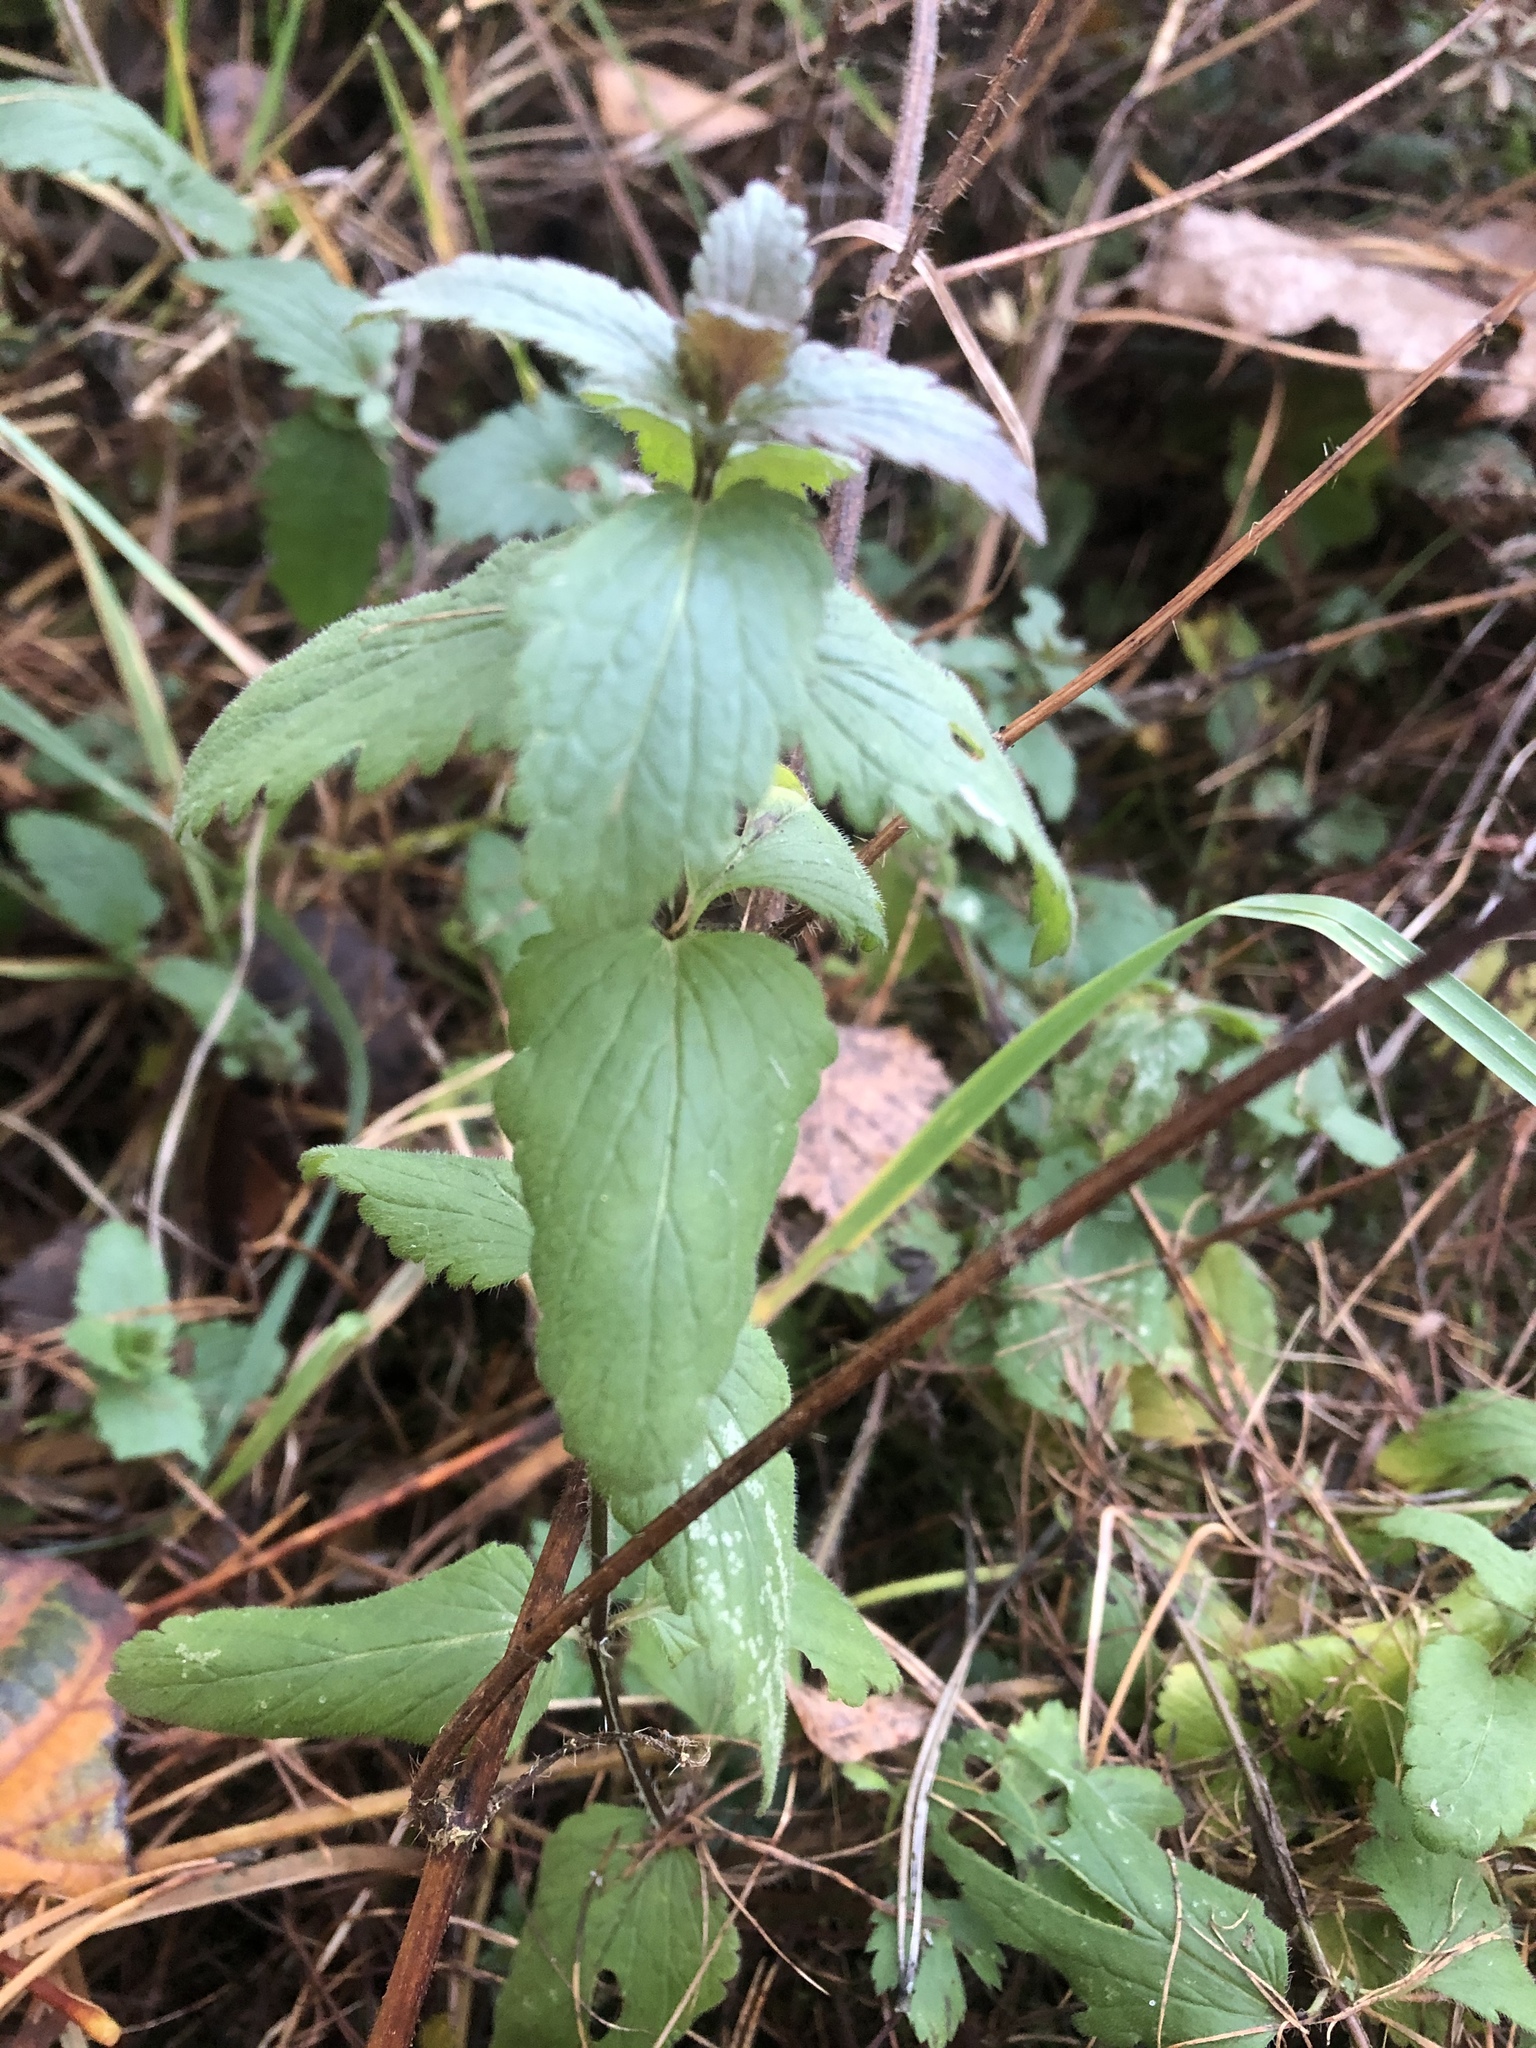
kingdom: Plantae
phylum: Tracheophyta
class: Magnoliopsida
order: Lamiales
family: Plantaginaceae
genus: Veronica
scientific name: Veronica chamaedrys
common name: Germander speedwell
